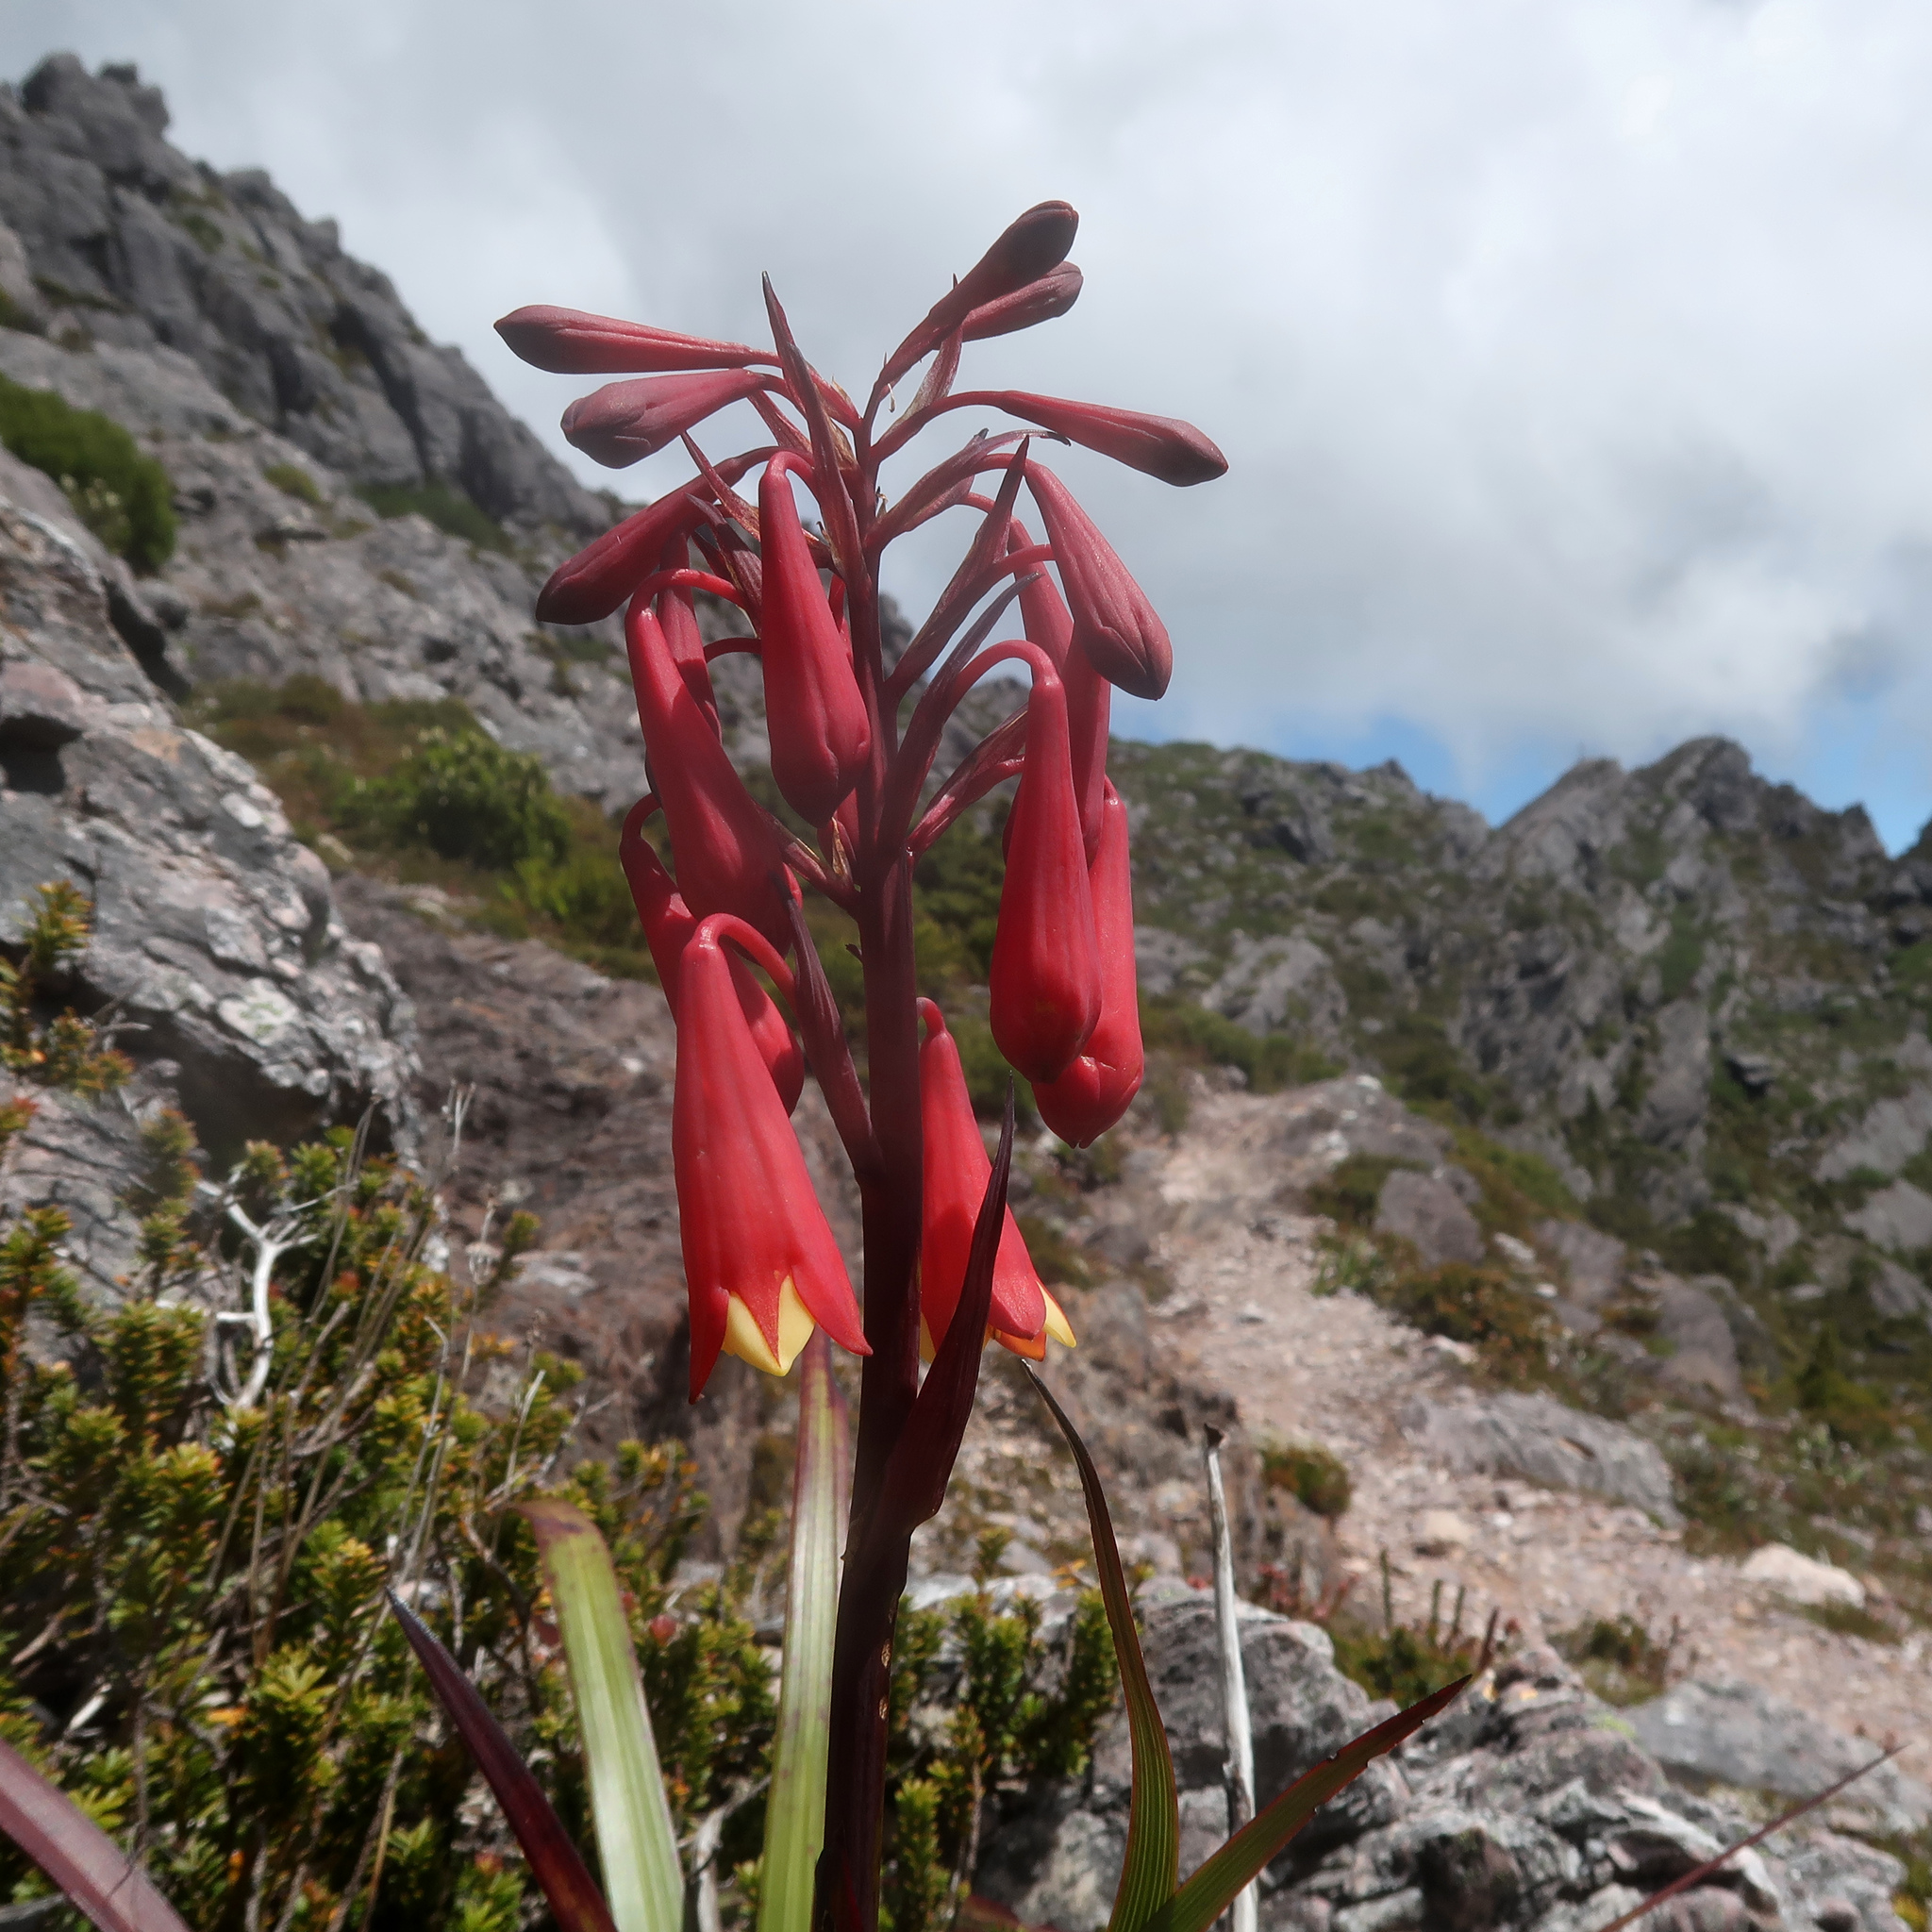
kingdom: Plantae
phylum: Tracheophyta
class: Liliopsida
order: Asparagales
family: Blandfordiaceae
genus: Blandfordia
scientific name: Blandfordia punicea
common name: Tasmanian christmas-bell
